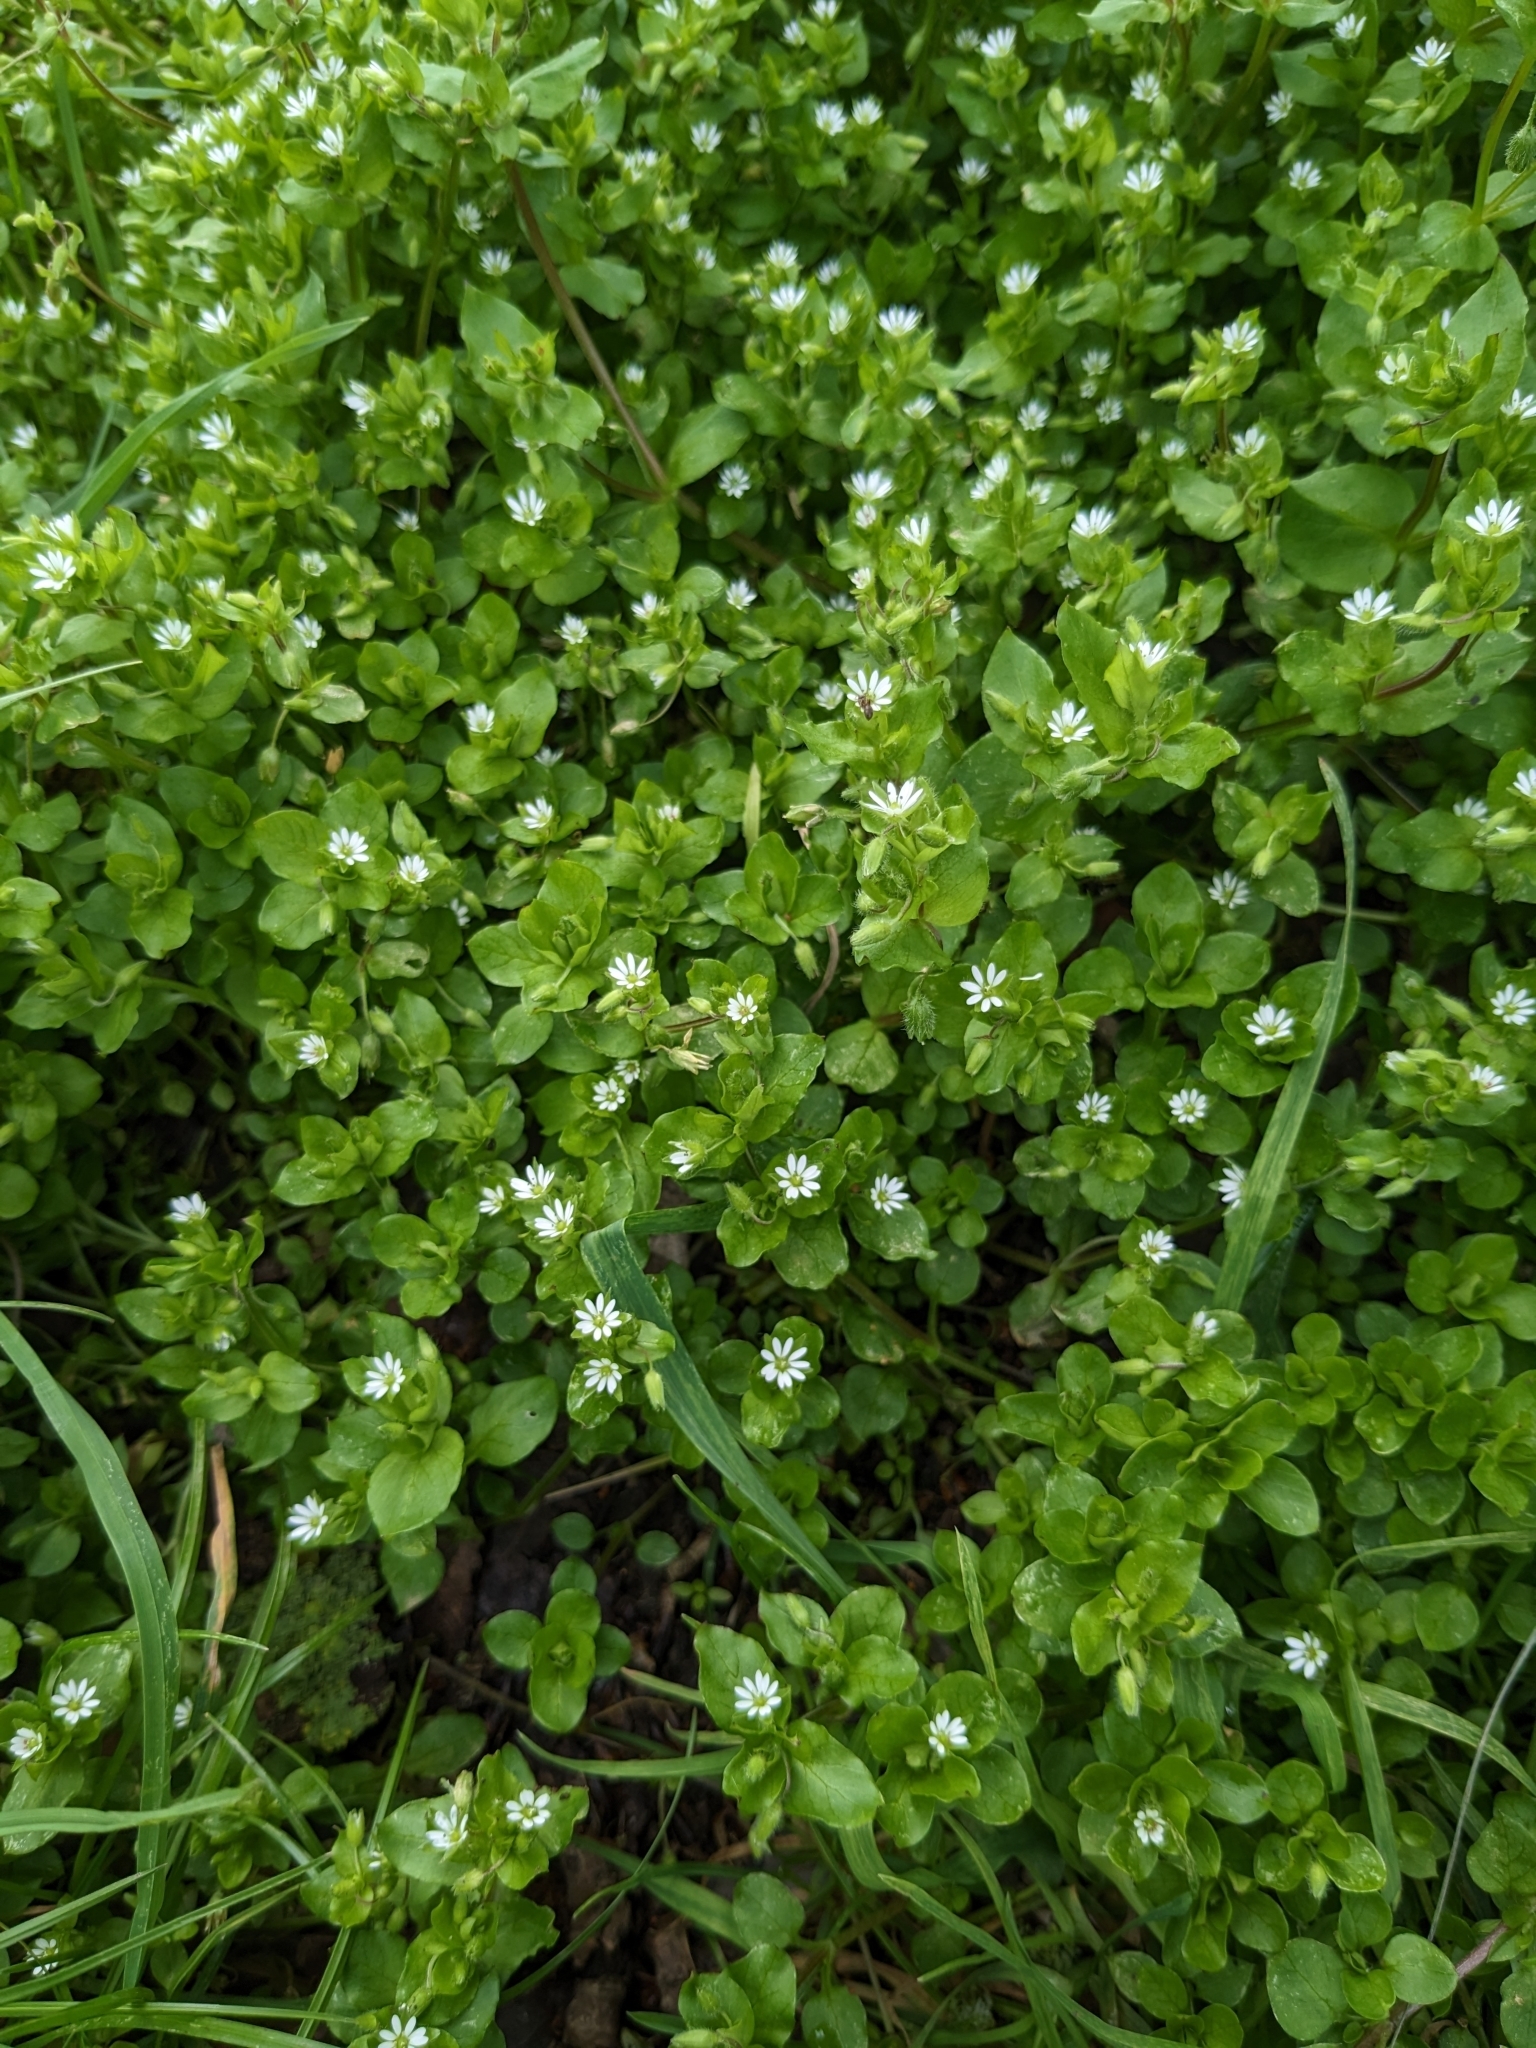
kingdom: Plantae
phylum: Tracheophyta
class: Magnoliopsida
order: Caryophyllales
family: Caryophyllaceae
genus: Stellaria
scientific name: Stellaria media
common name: Common chickweed
